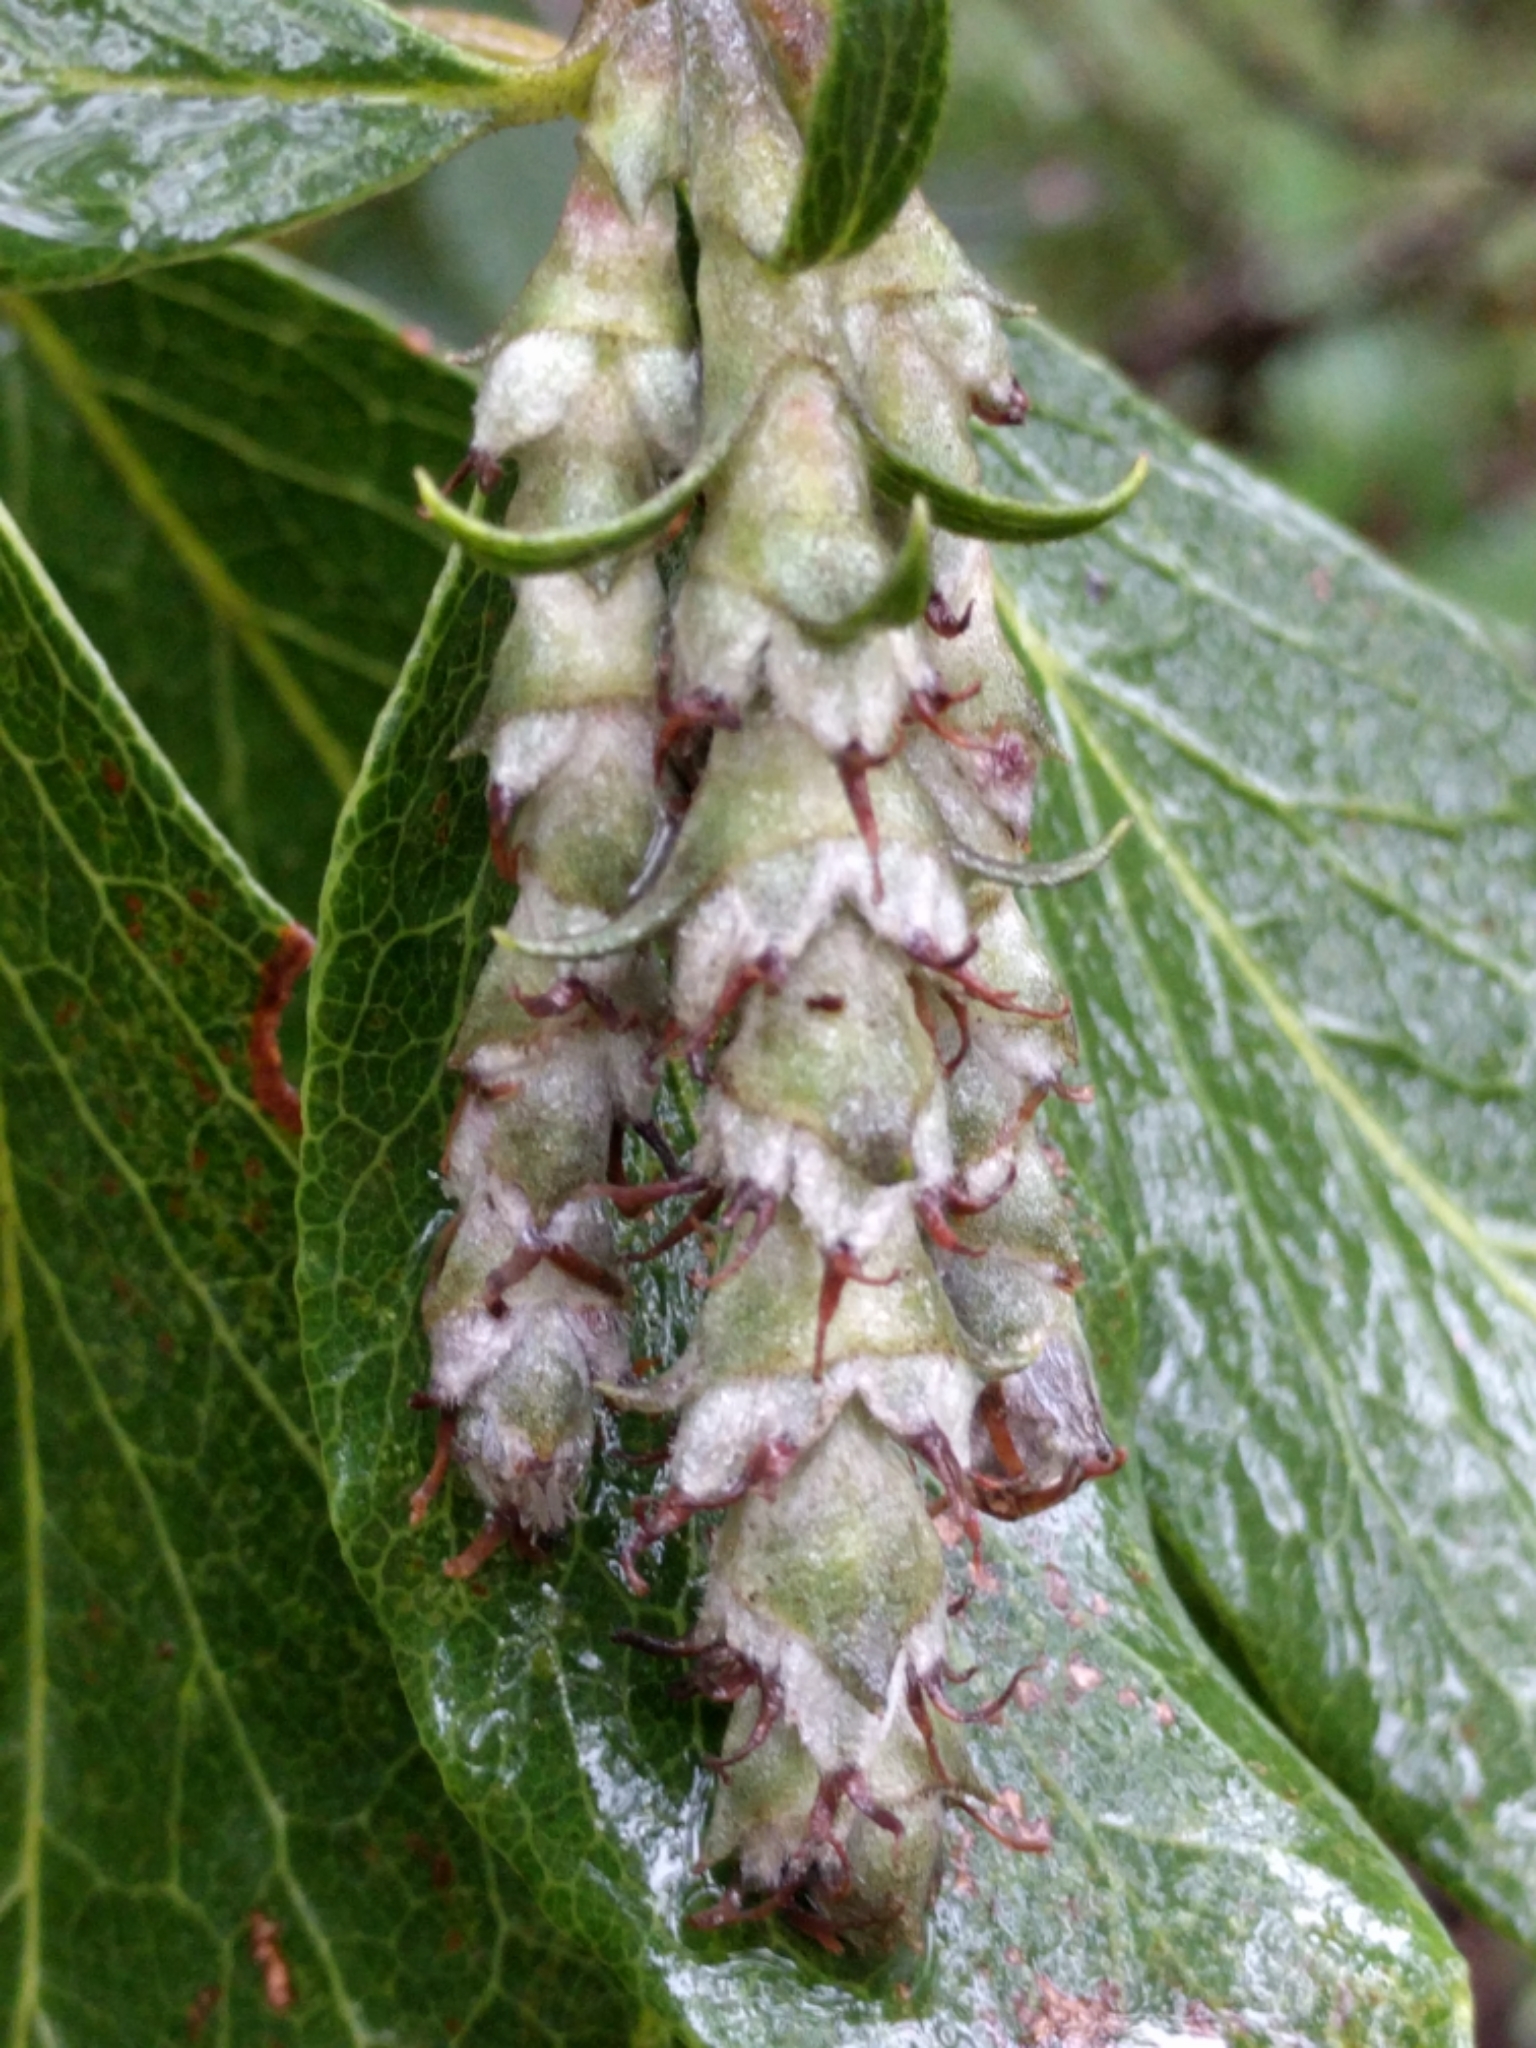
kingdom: Plantae
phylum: Tracheophyta
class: Magnoliopsida
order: Garryales
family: Garryaceae
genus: Garrya
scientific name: Garrya fremontii
